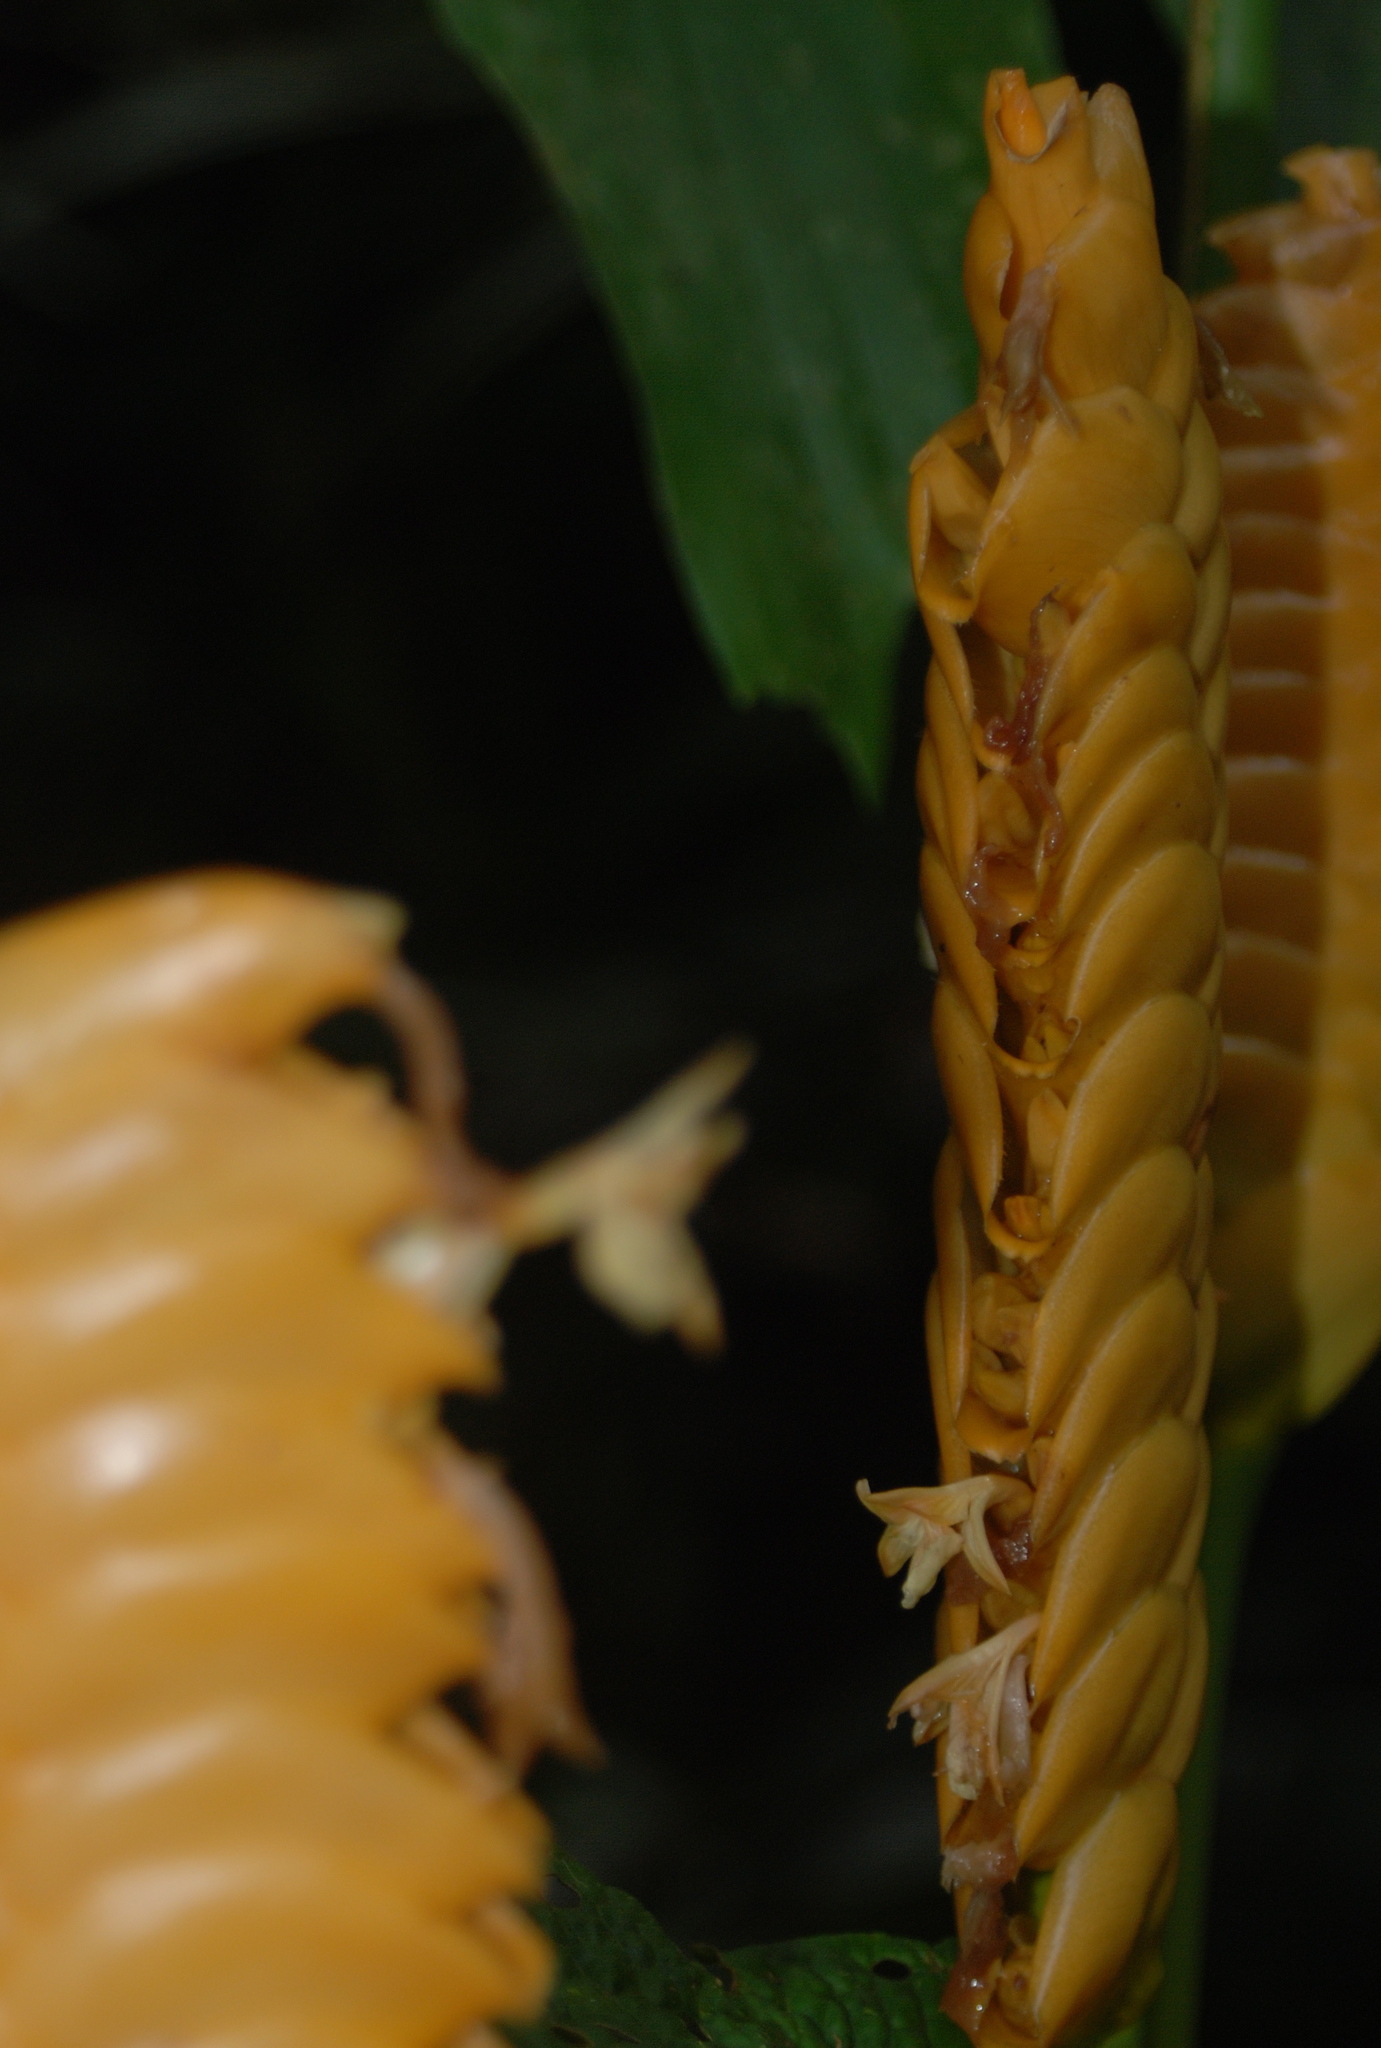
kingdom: Plantae
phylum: Tracheophyta
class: Liliopsida
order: Zingiberales
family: Marantaceae
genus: Calathea
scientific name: Calathea crotalifera
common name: Rattlesnake plant
